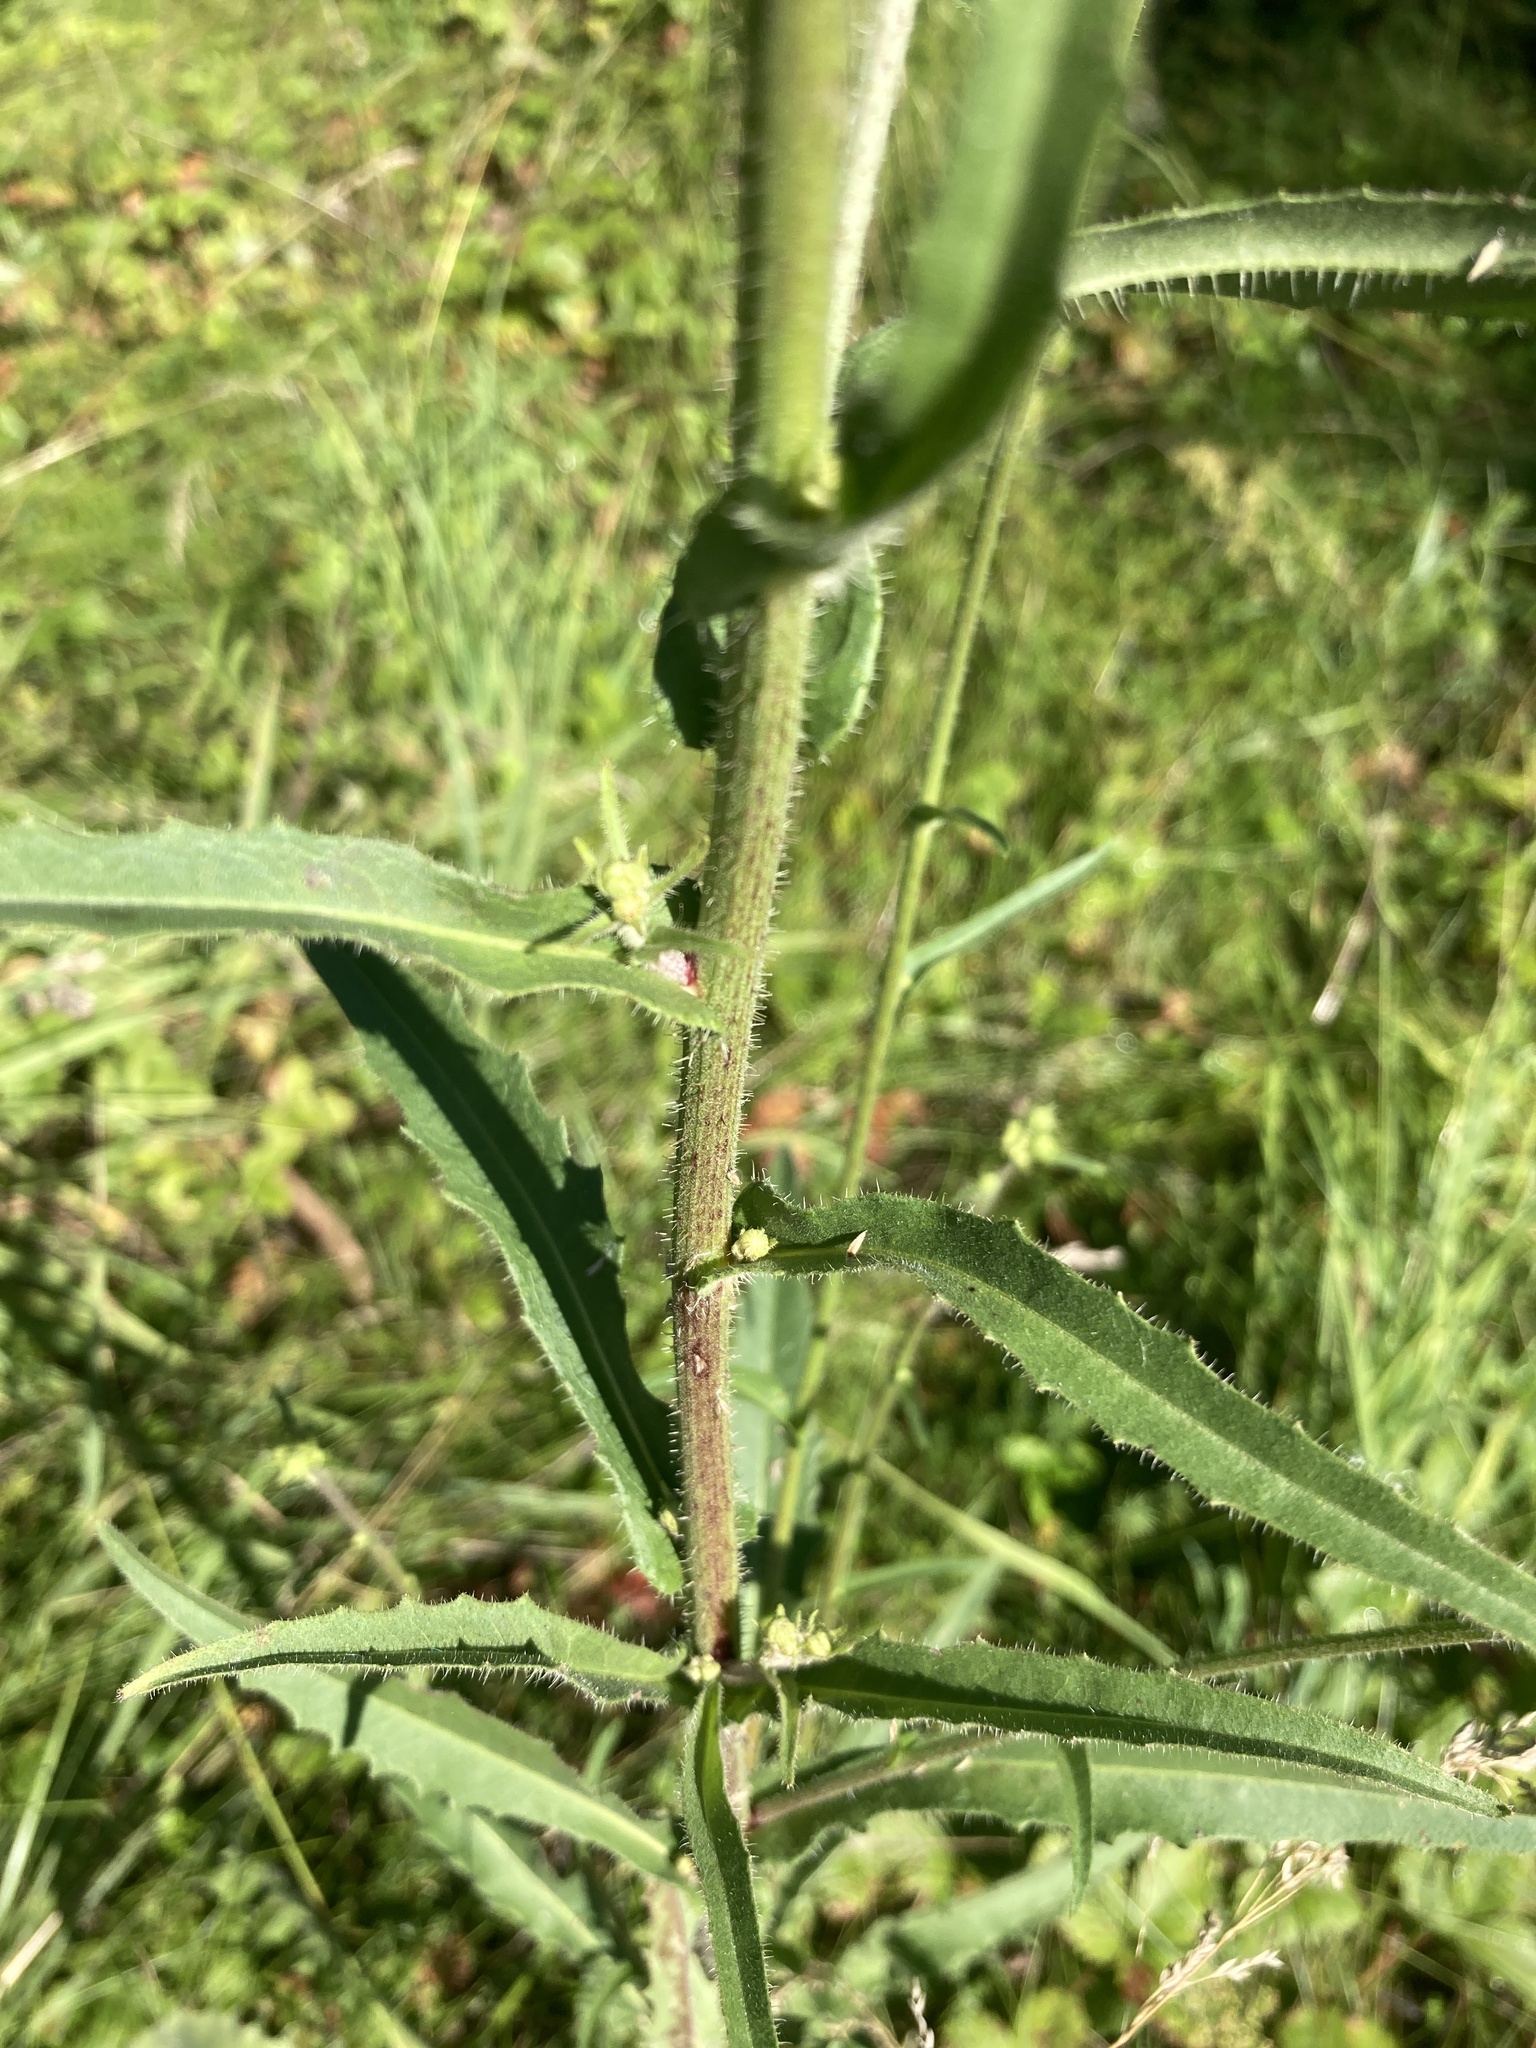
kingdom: Plantae
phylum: Tracheophyta
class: Magnoliopsida
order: Asterales
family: Asteraceae
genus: Picris
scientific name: Picris hieracioides
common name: Hawkweed oxtongue
